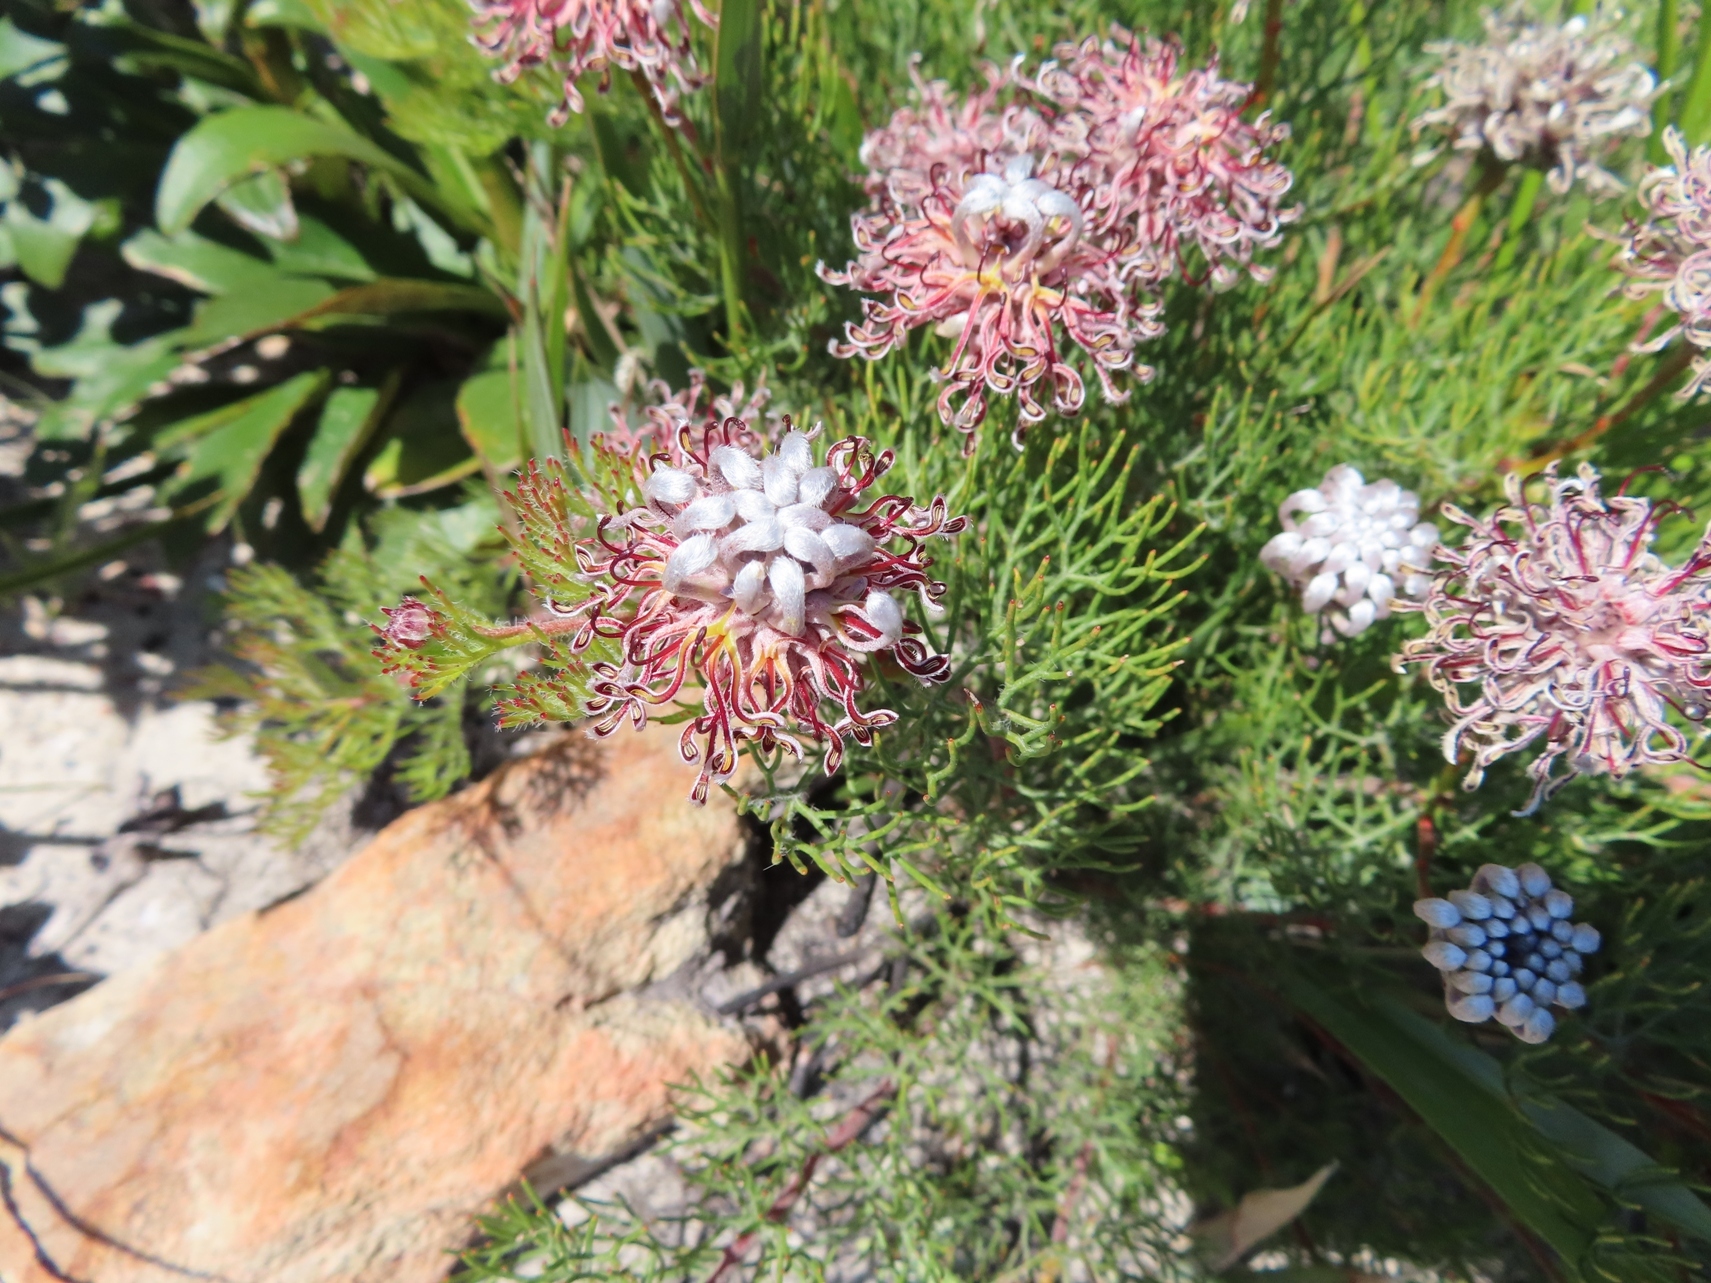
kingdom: Plantae
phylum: Tracheophyta
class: Magnoliopsida
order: Proteales
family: Proteaceae
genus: Serruria
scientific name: Serruria gremialis
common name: Riviersonderend spiderhead
